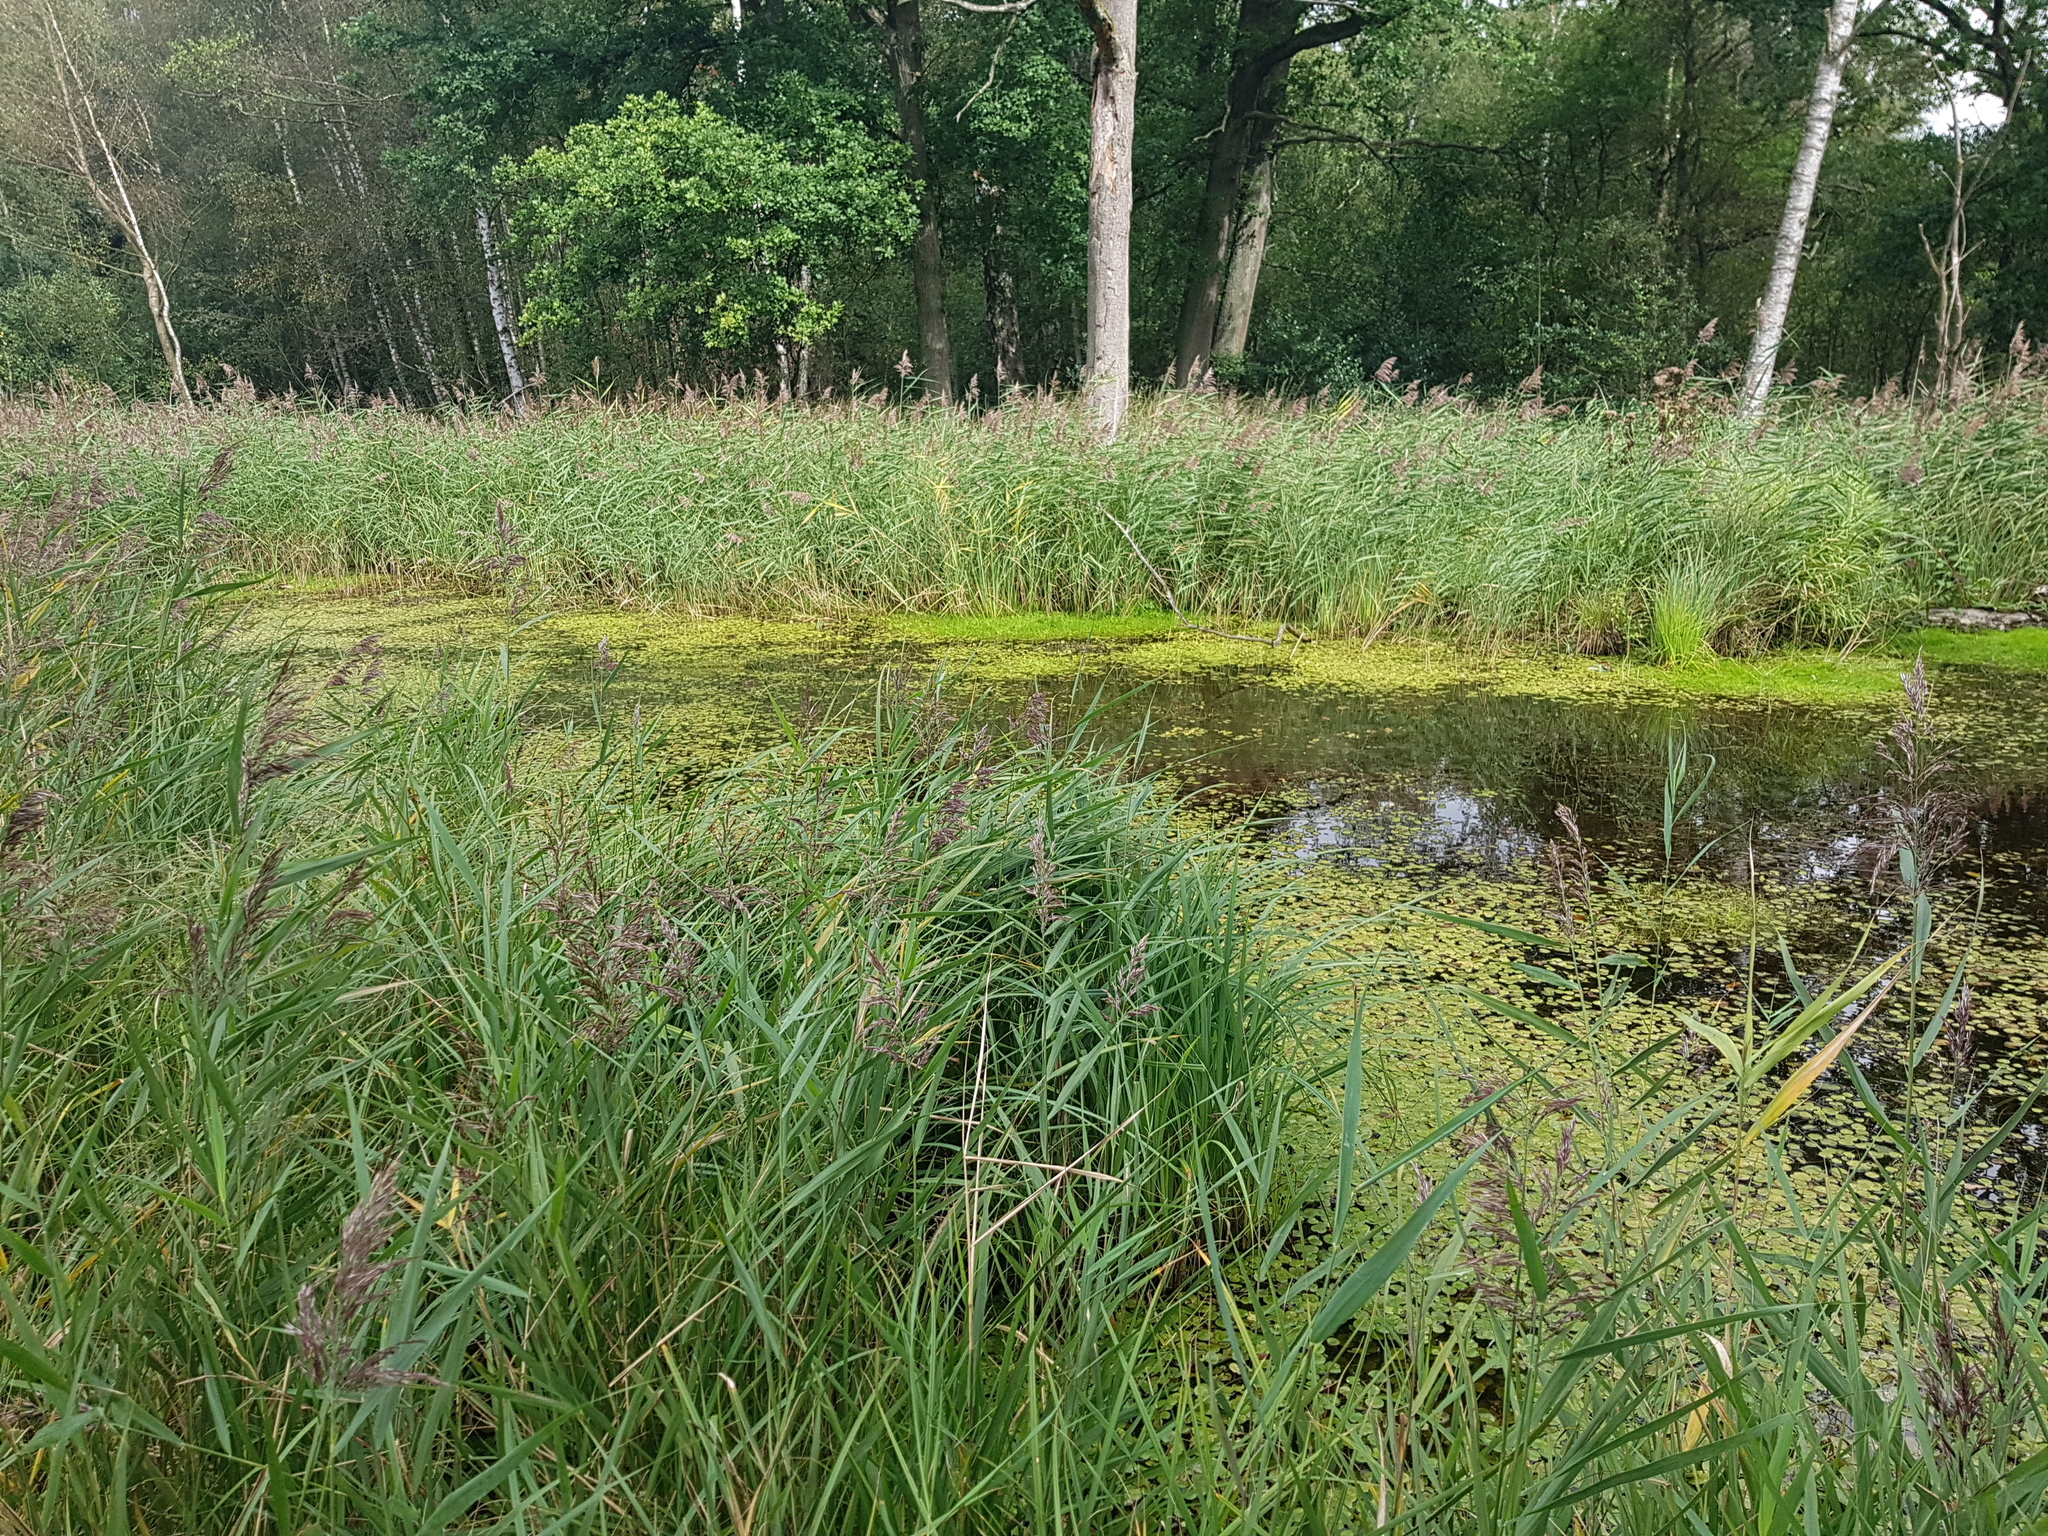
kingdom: Plantae
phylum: Tracheophyta
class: Liliopsida
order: Alismatales
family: Hydrocharitaceae
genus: Hydrocharis
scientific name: Hydrocharis morsus-ranae
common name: Frogbit
